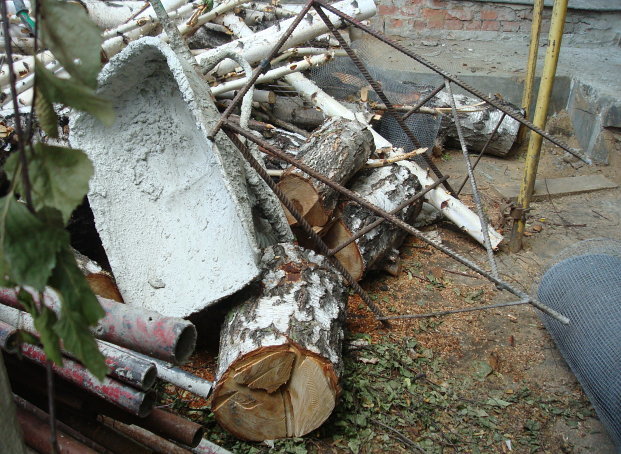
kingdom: Plantae
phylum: Tracheophyta
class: Magnoliopsida
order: Fagales
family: Betulaceae
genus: Betula
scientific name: Betula pendula
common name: Silver birch
